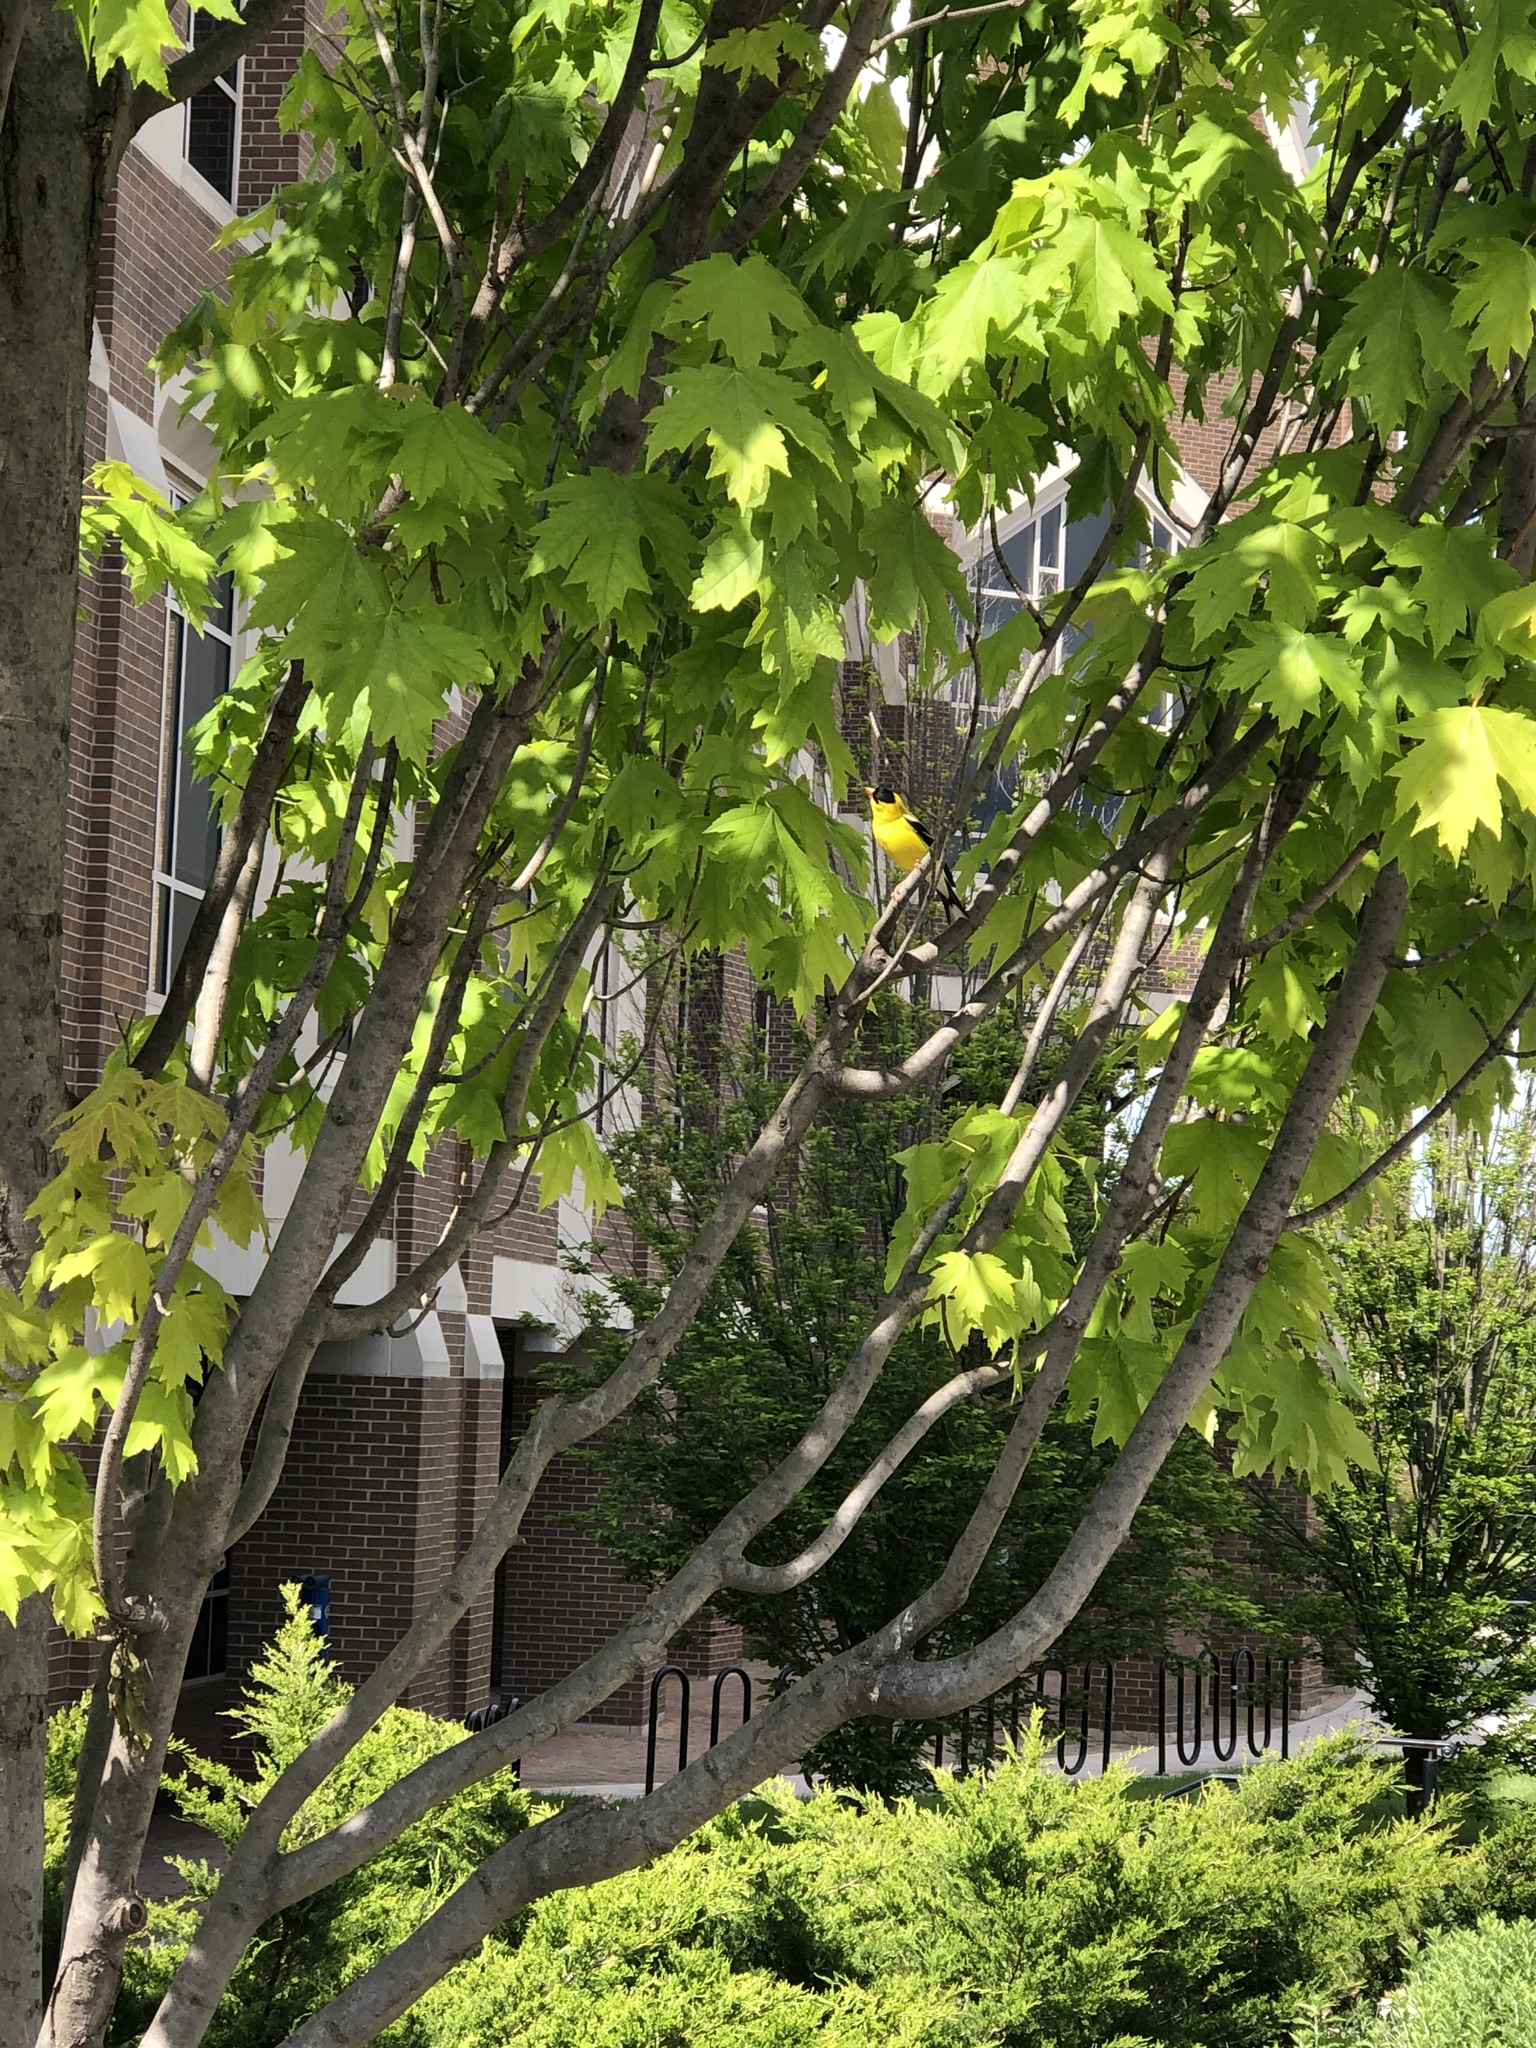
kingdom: Animalia
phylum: Chordata
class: Aves
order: Passeriformes
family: Fringillidae
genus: Spinus
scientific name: Spinus tristis
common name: American goldfinch
